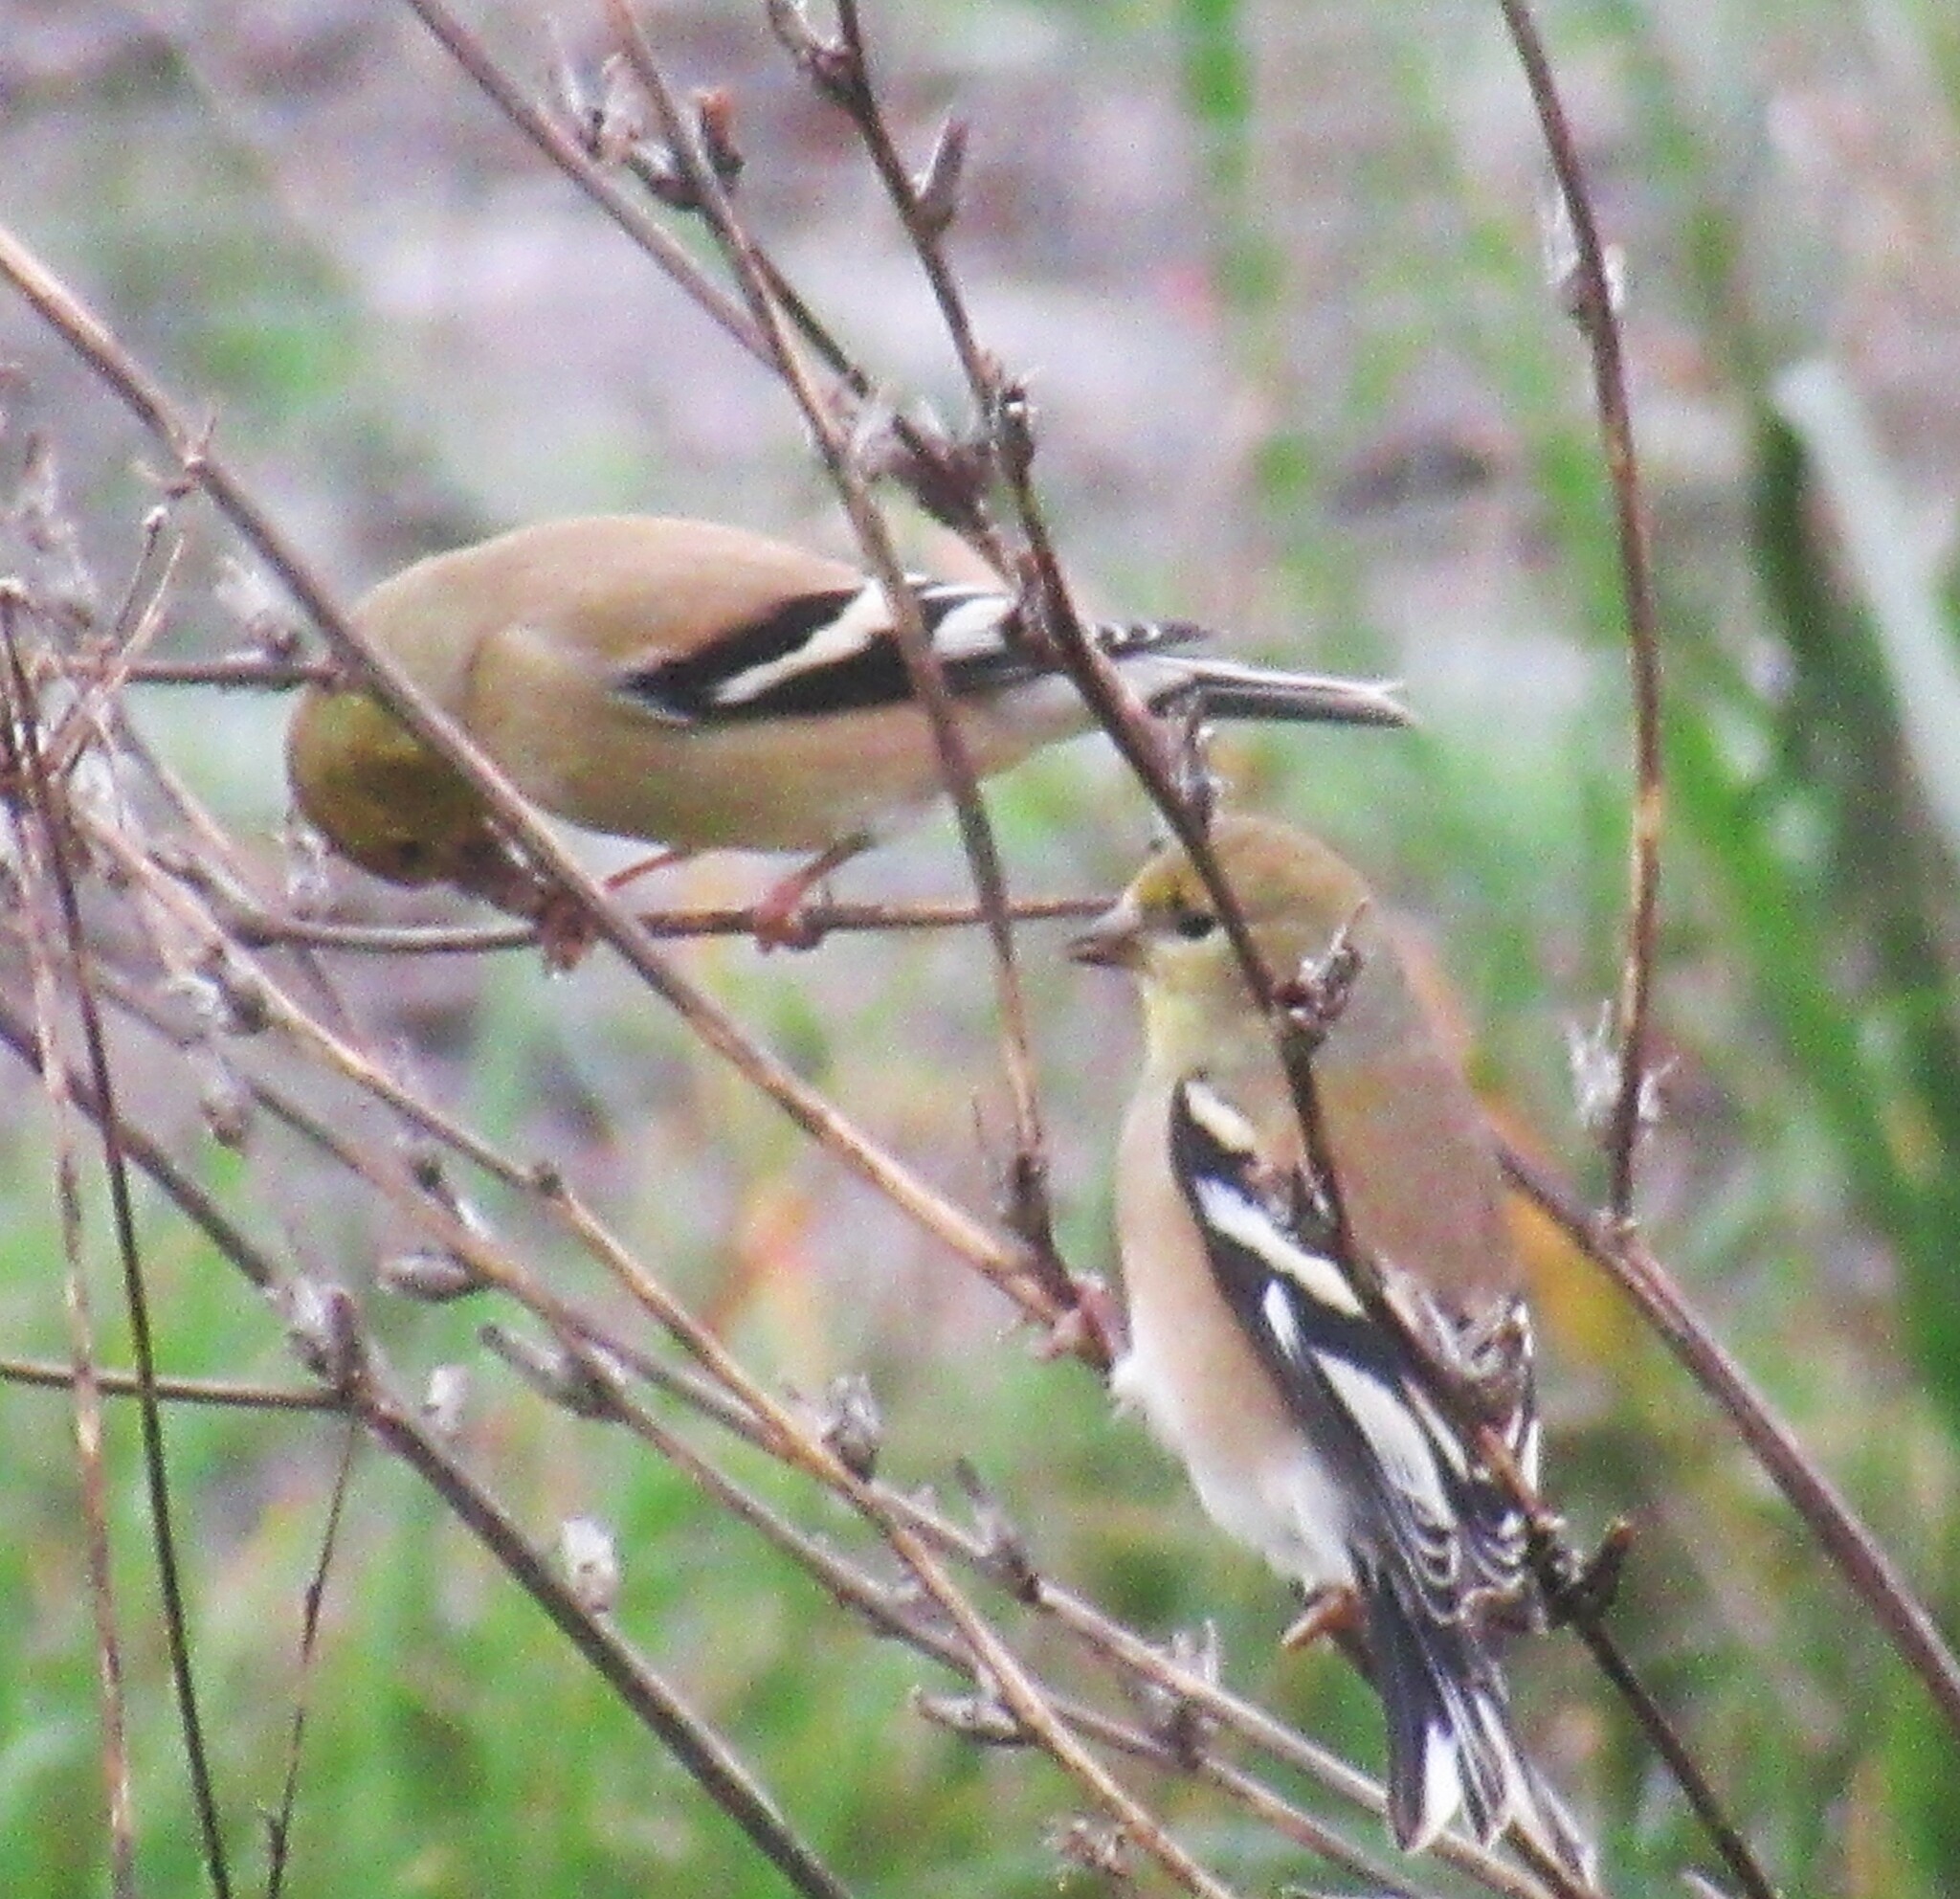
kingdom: Animalia
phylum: Chordata
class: Aves
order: Passeriformes
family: Fringillidae
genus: Spinus
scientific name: Spinus tristis
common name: American goldfinch
